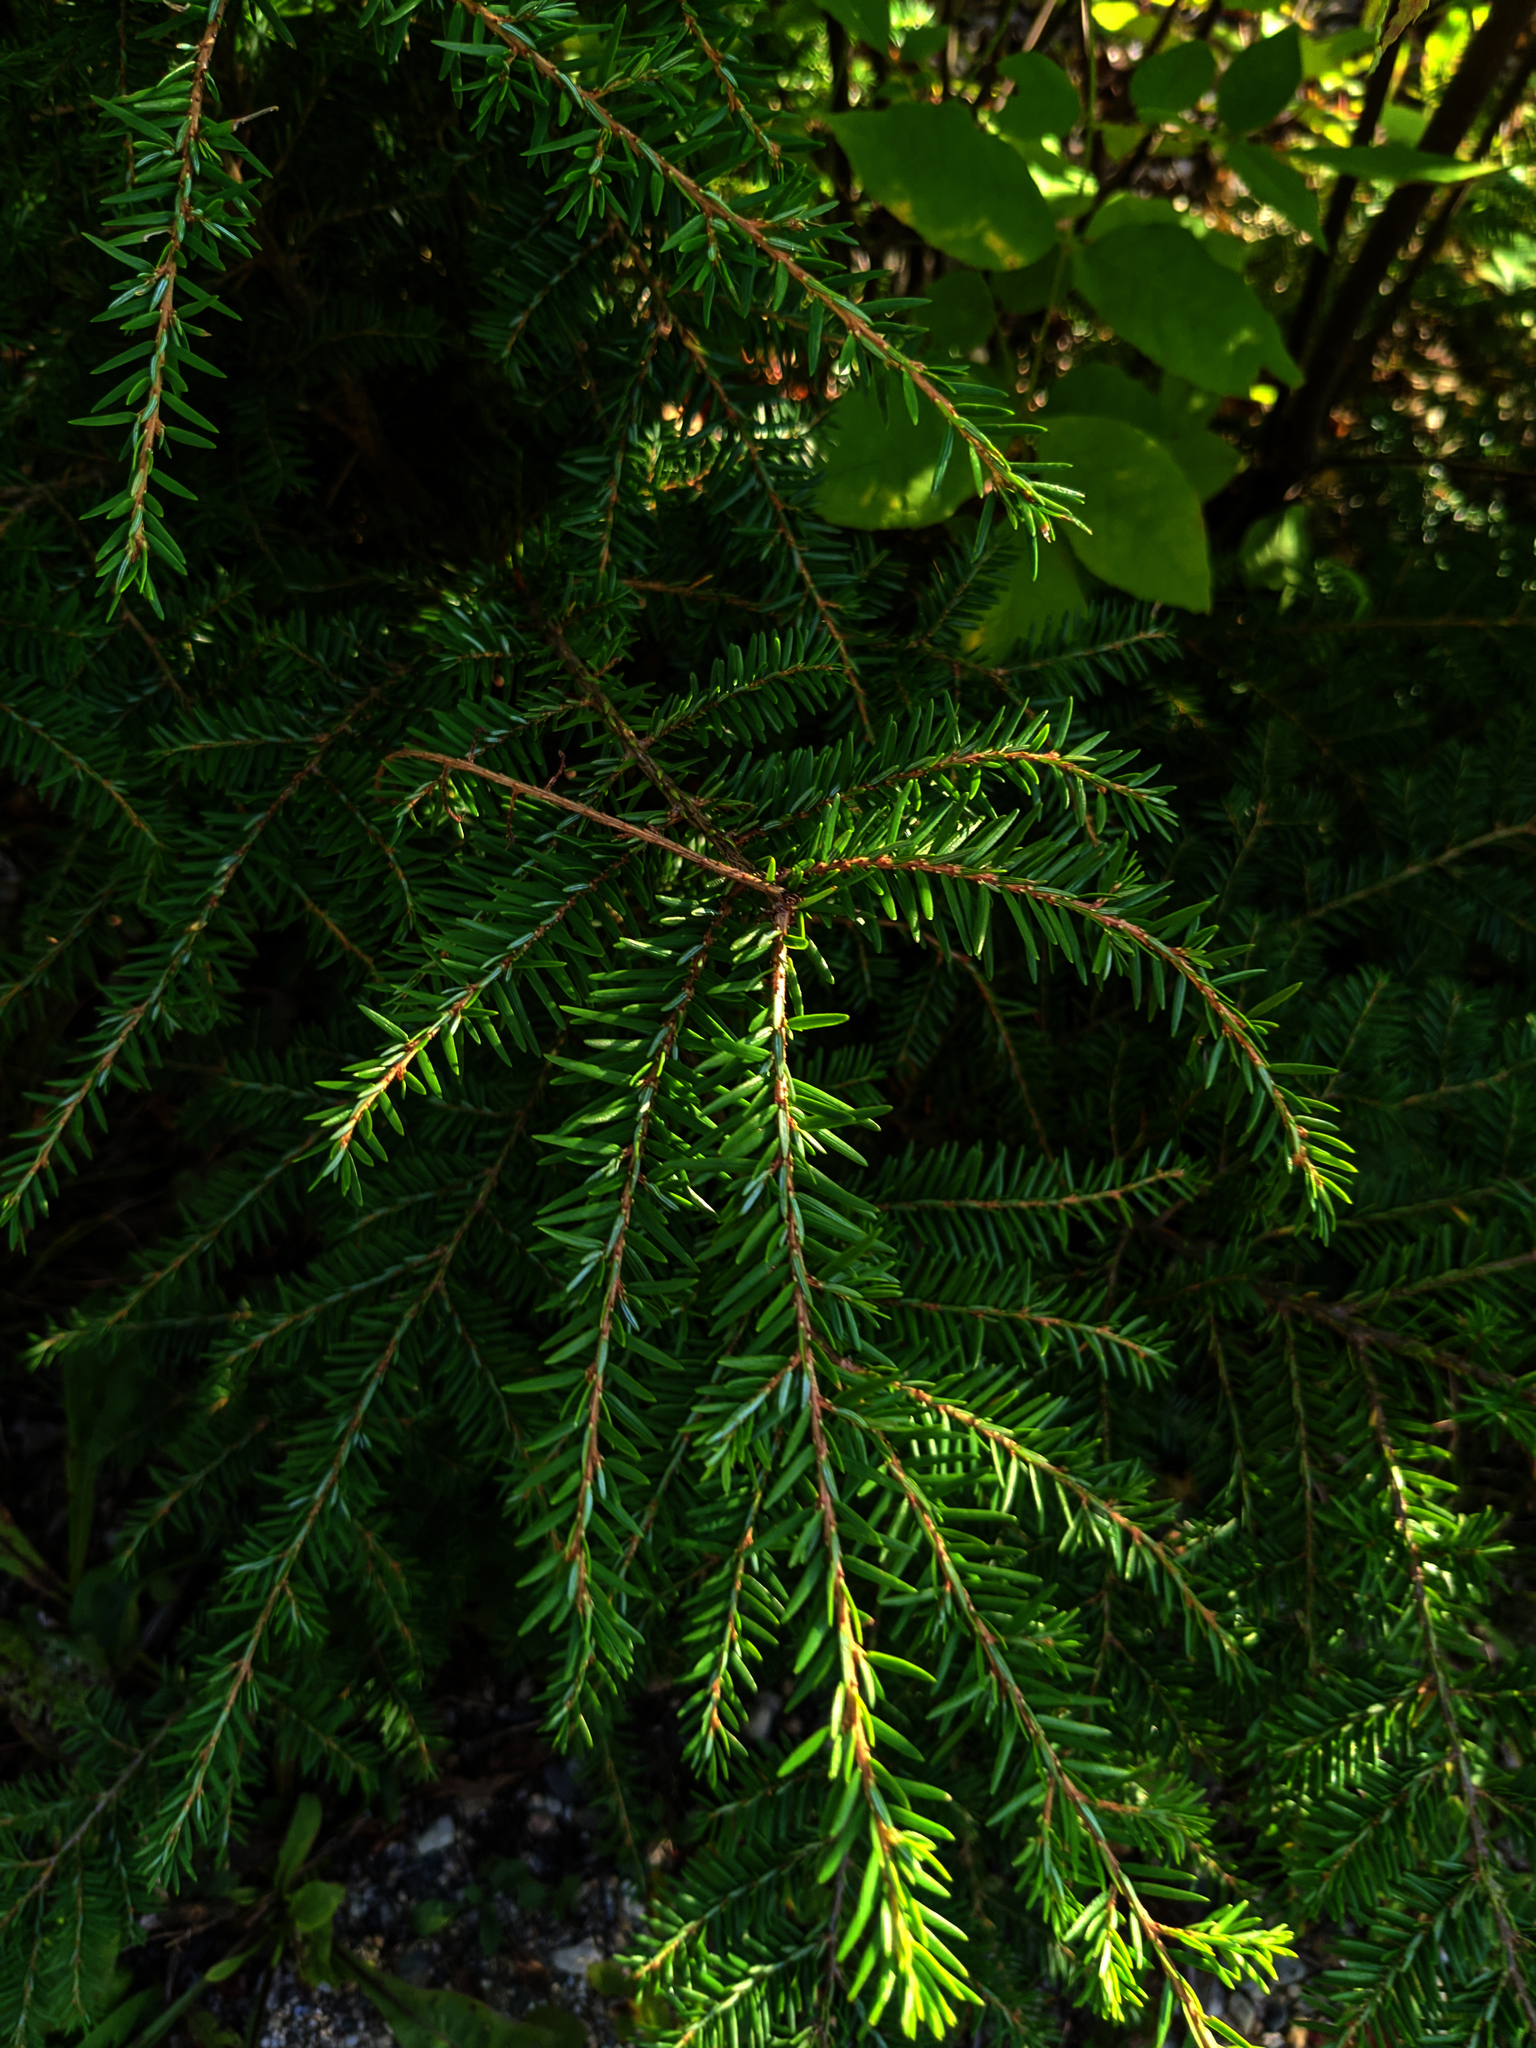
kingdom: Plantae
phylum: Tracheophyta
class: Pinopsida
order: Pinales
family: Pinaceae
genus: Tsuga
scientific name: Tsuga canadensis
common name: Eastern hemlock
